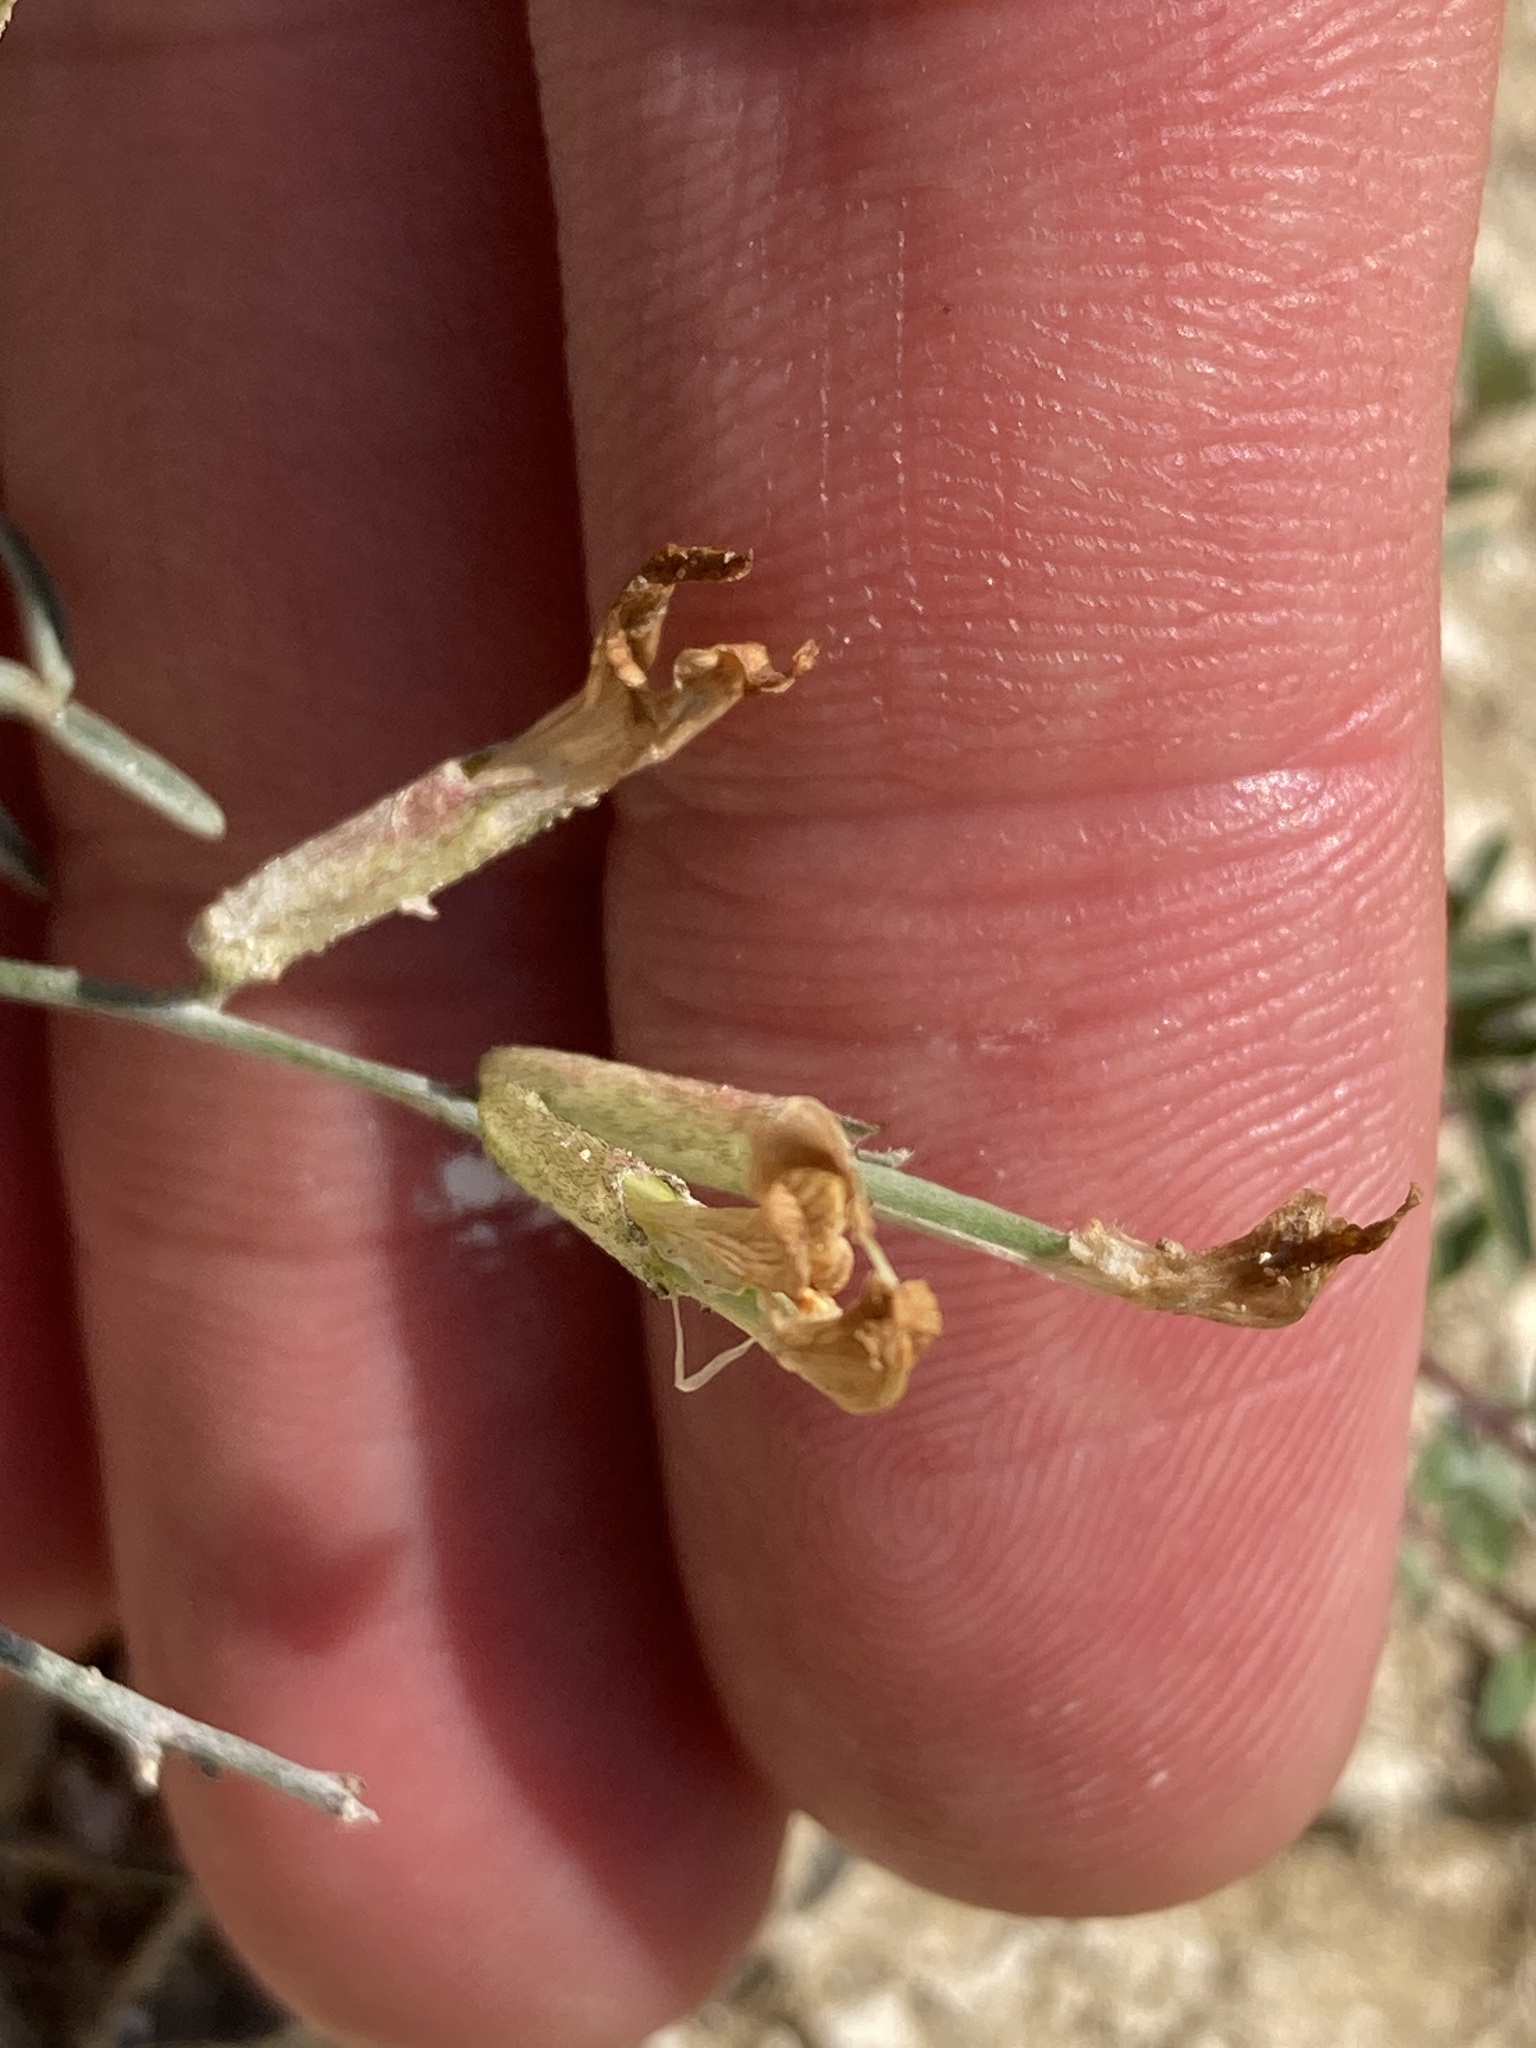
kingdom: Plantae
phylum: Tracheophyta
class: Magnoliopsida
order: Fabales
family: Fabaceae
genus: Astragalus
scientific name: Astragalus ucrainicus
